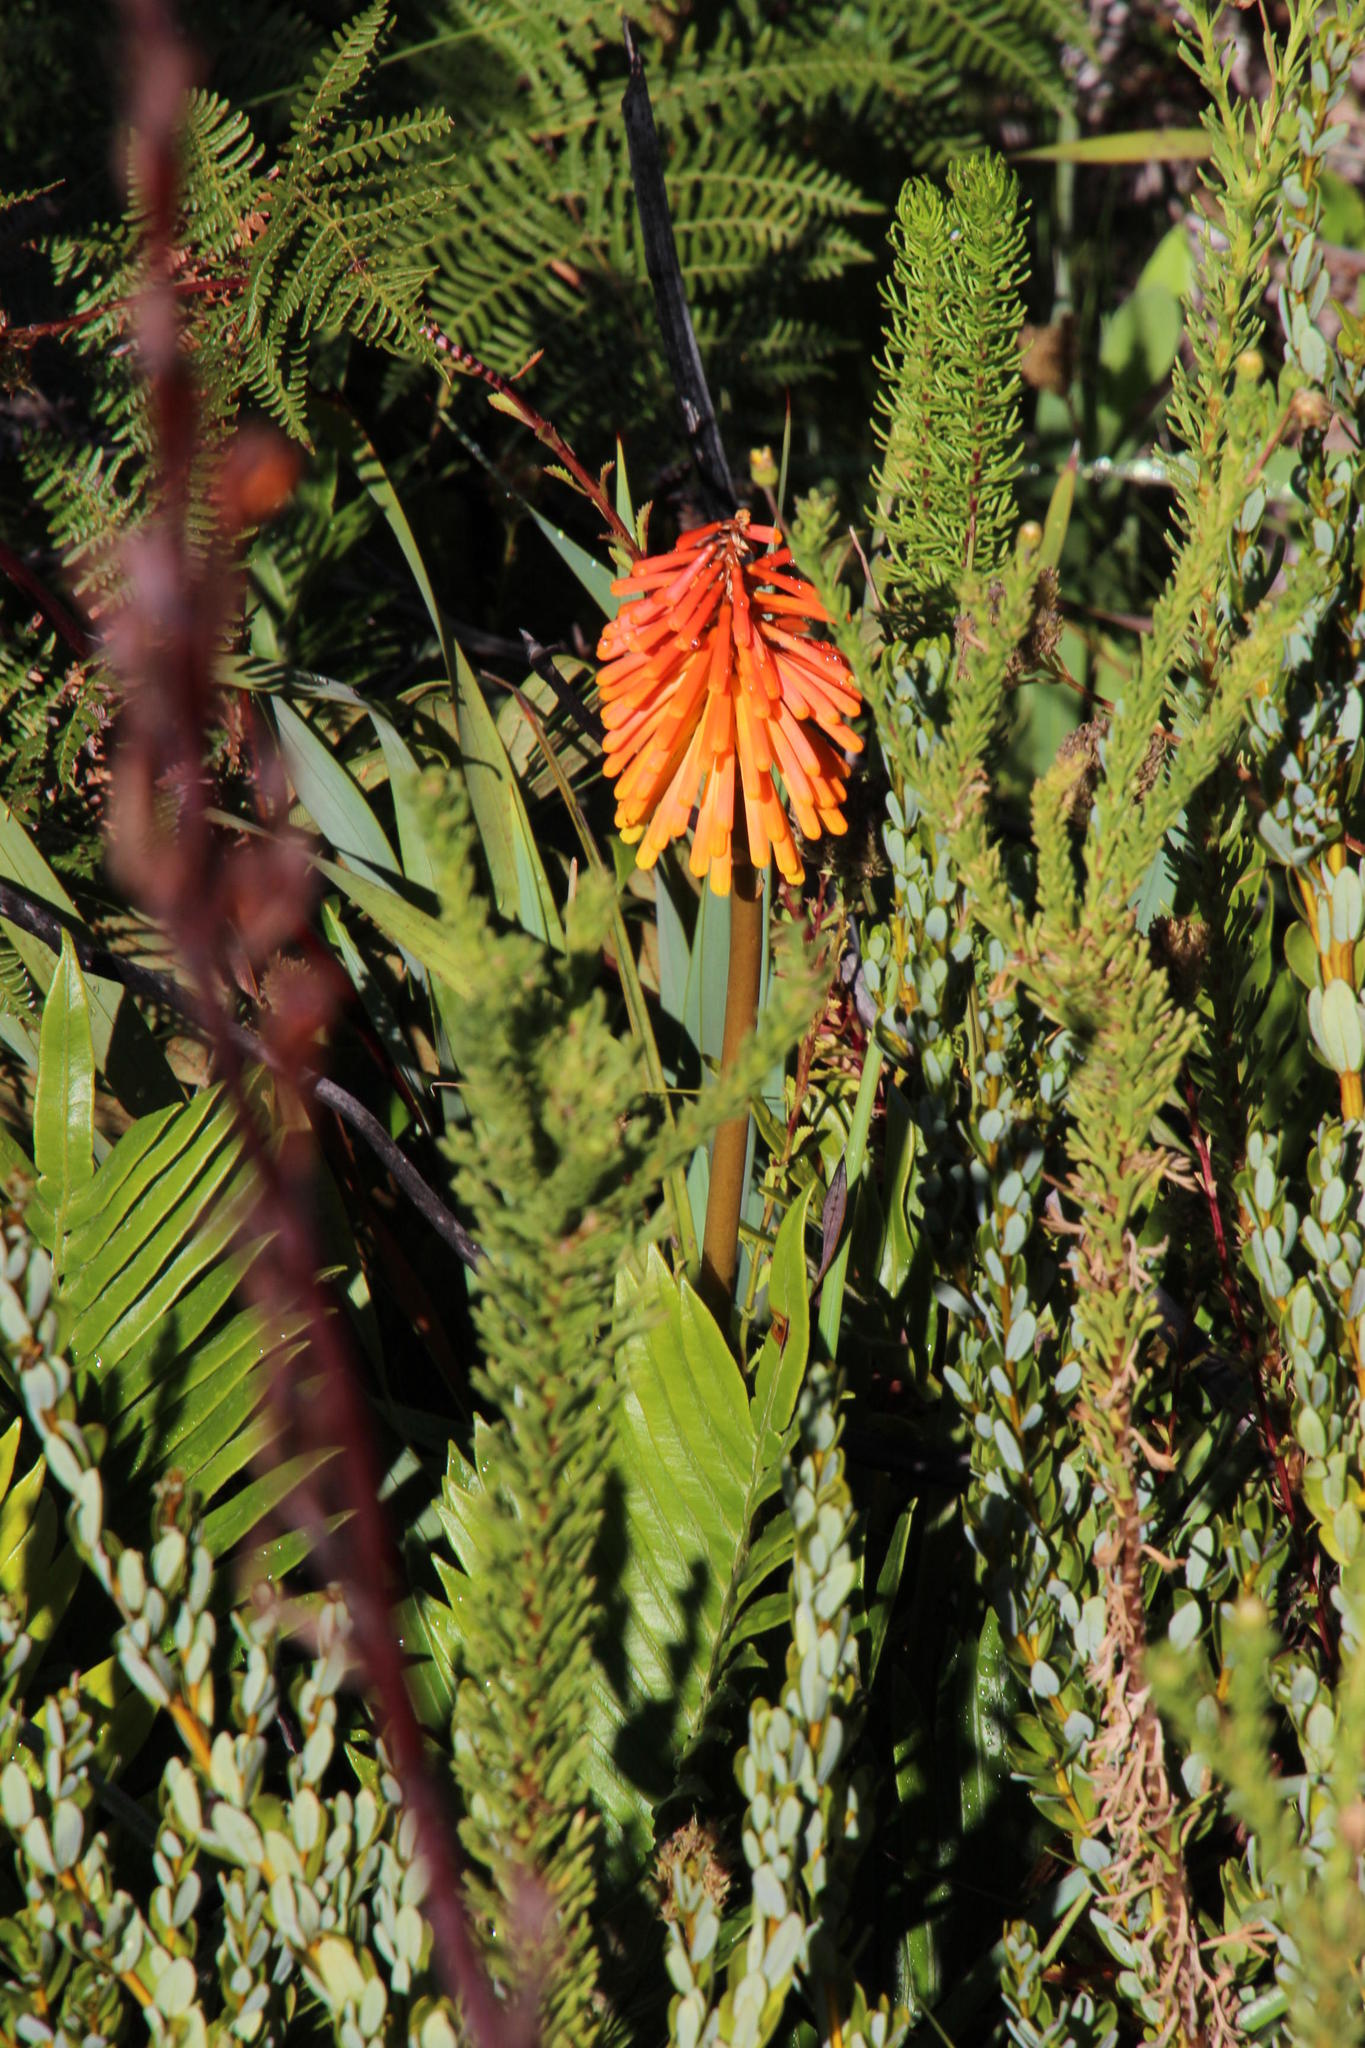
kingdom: Plantae
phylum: Tracheophyta
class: Liliopsida
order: Asparagales
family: Asphodelaceae
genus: Kniphofia
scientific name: Kniphofia uvaria
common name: Red-hot-poker
